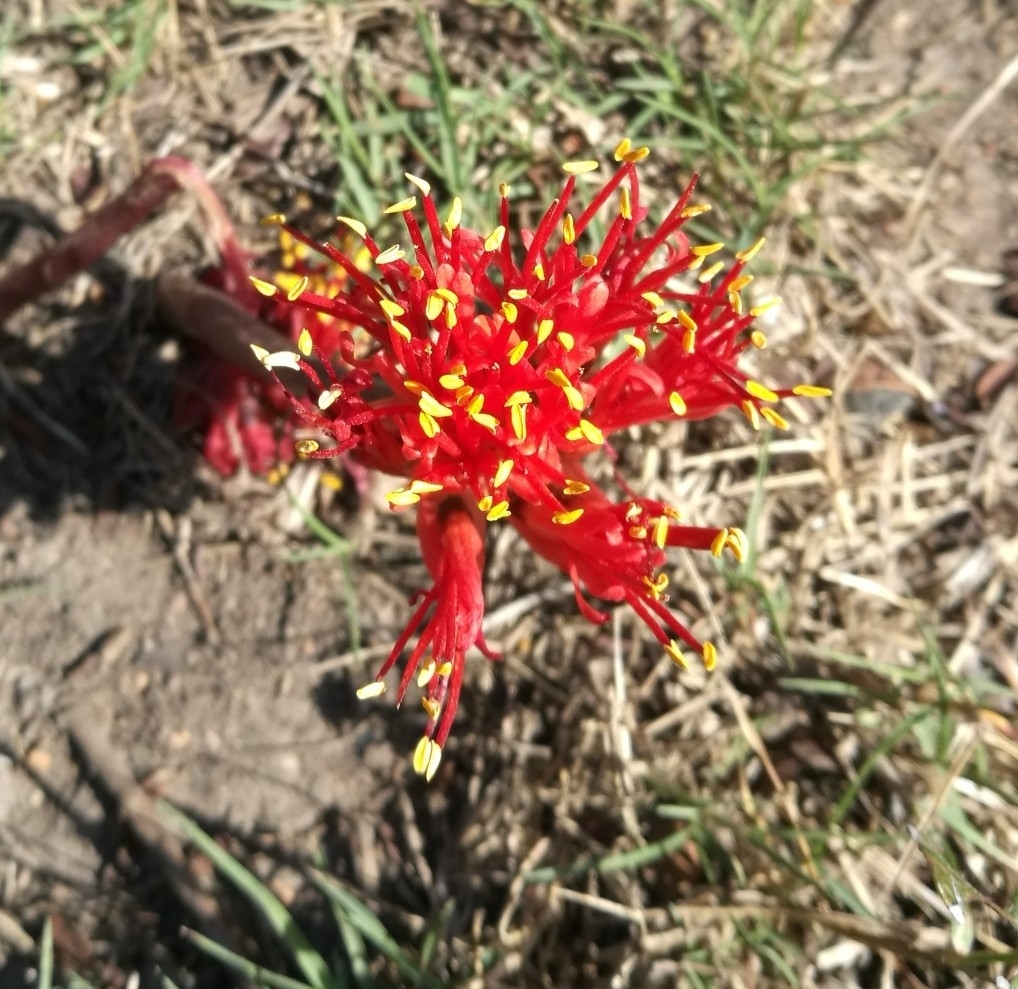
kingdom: Plantae
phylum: Tracheophyta
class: Liliopsida
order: Asparagales
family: Amaryllidaceae
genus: Haemanthus
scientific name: Haemanthus coccineus
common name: Cape-tulip
